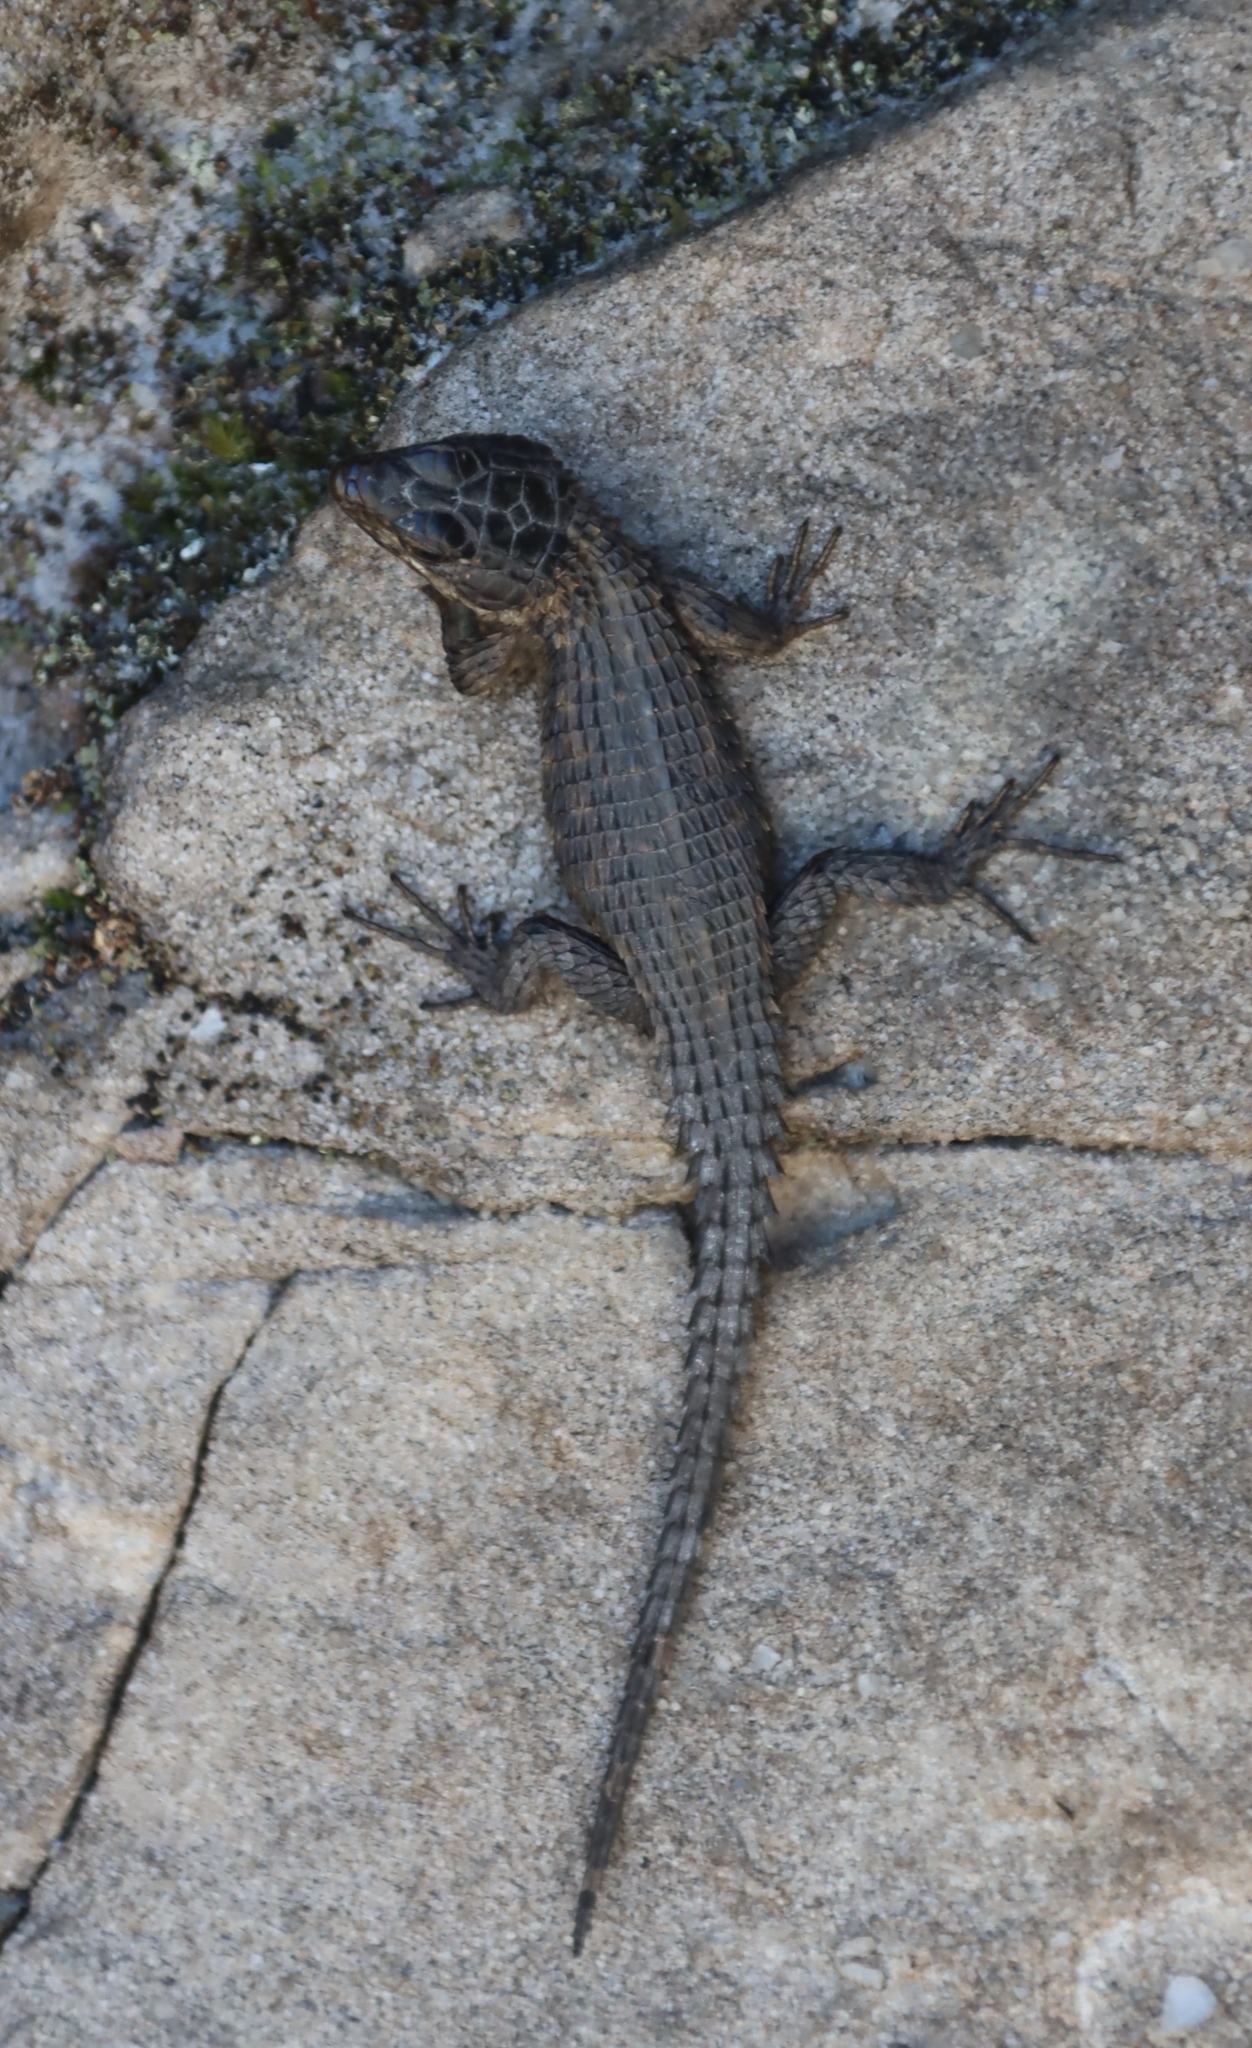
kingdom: Animalia
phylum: Chordata
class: Squamata
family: Cordylidae
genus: Cordylus
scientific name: Cordylus niger
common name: Black girdled lizard
